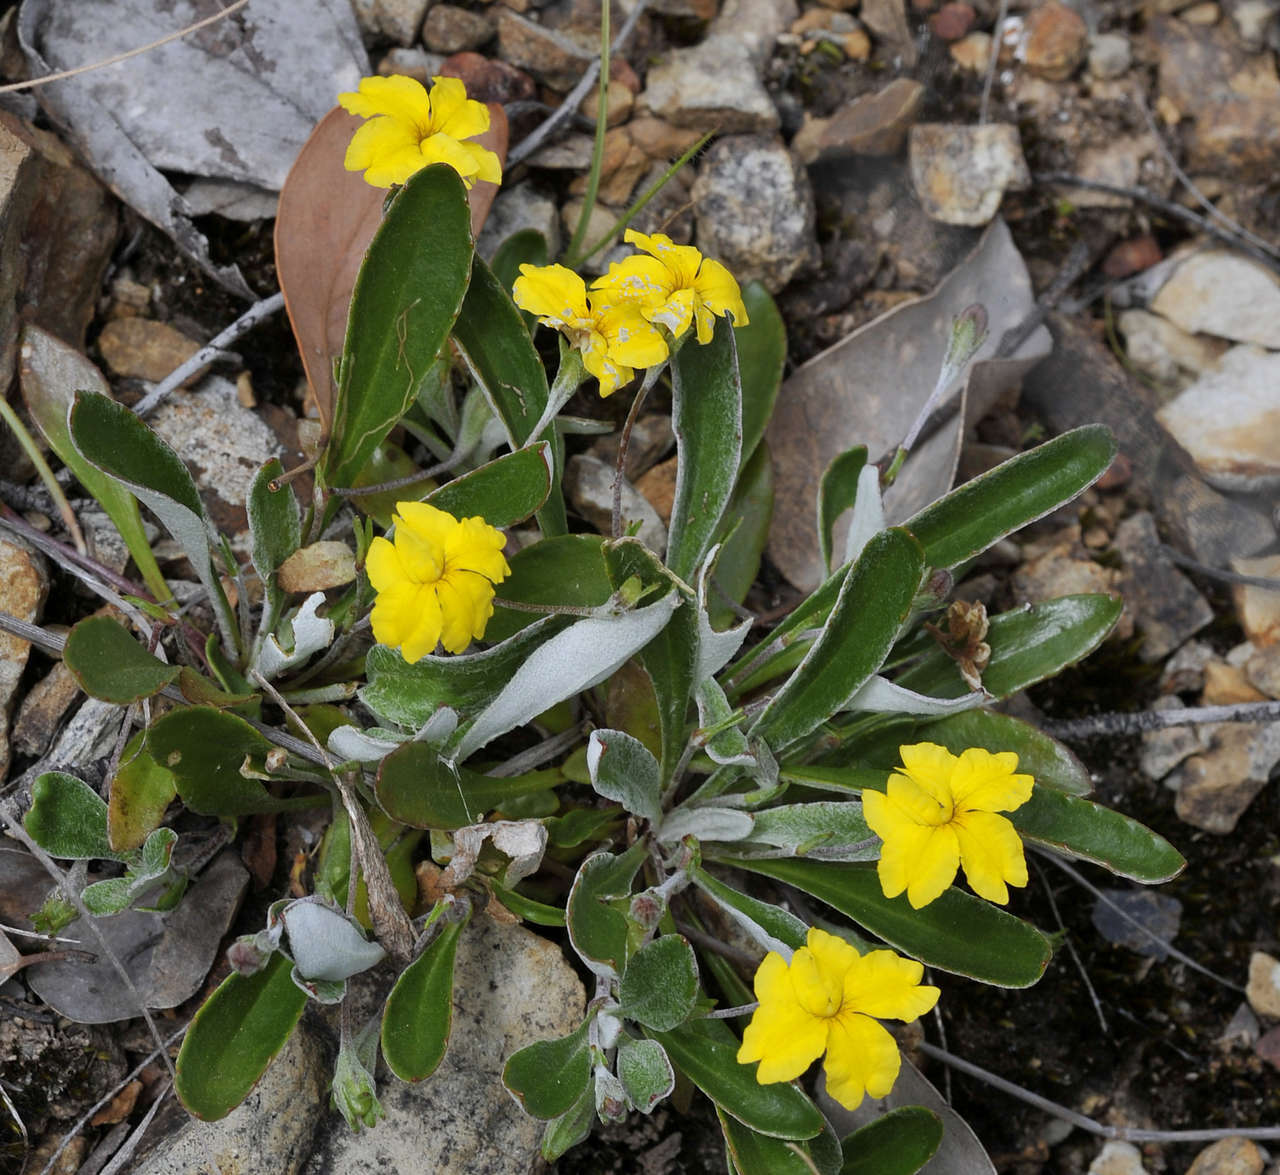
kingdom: Plantae
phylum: Tracheophyta
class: Magnoliopsida
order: Asterales
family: Goodeniaceae
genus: Goodenia
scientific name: Goodenia blackiana
